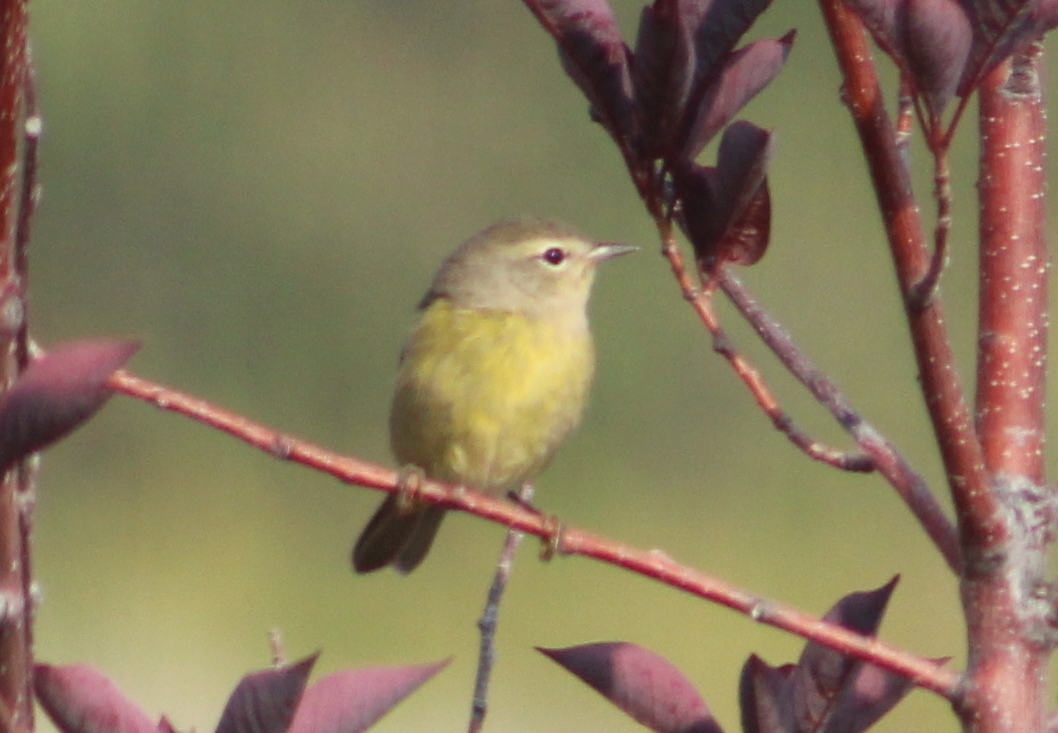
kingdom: Animalia
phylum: Chordata
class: Aves
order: Passeriformes
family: Parulidae
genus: Leiothlypis
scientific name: Leiothlypis celata
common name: Orange-crowned warbler
